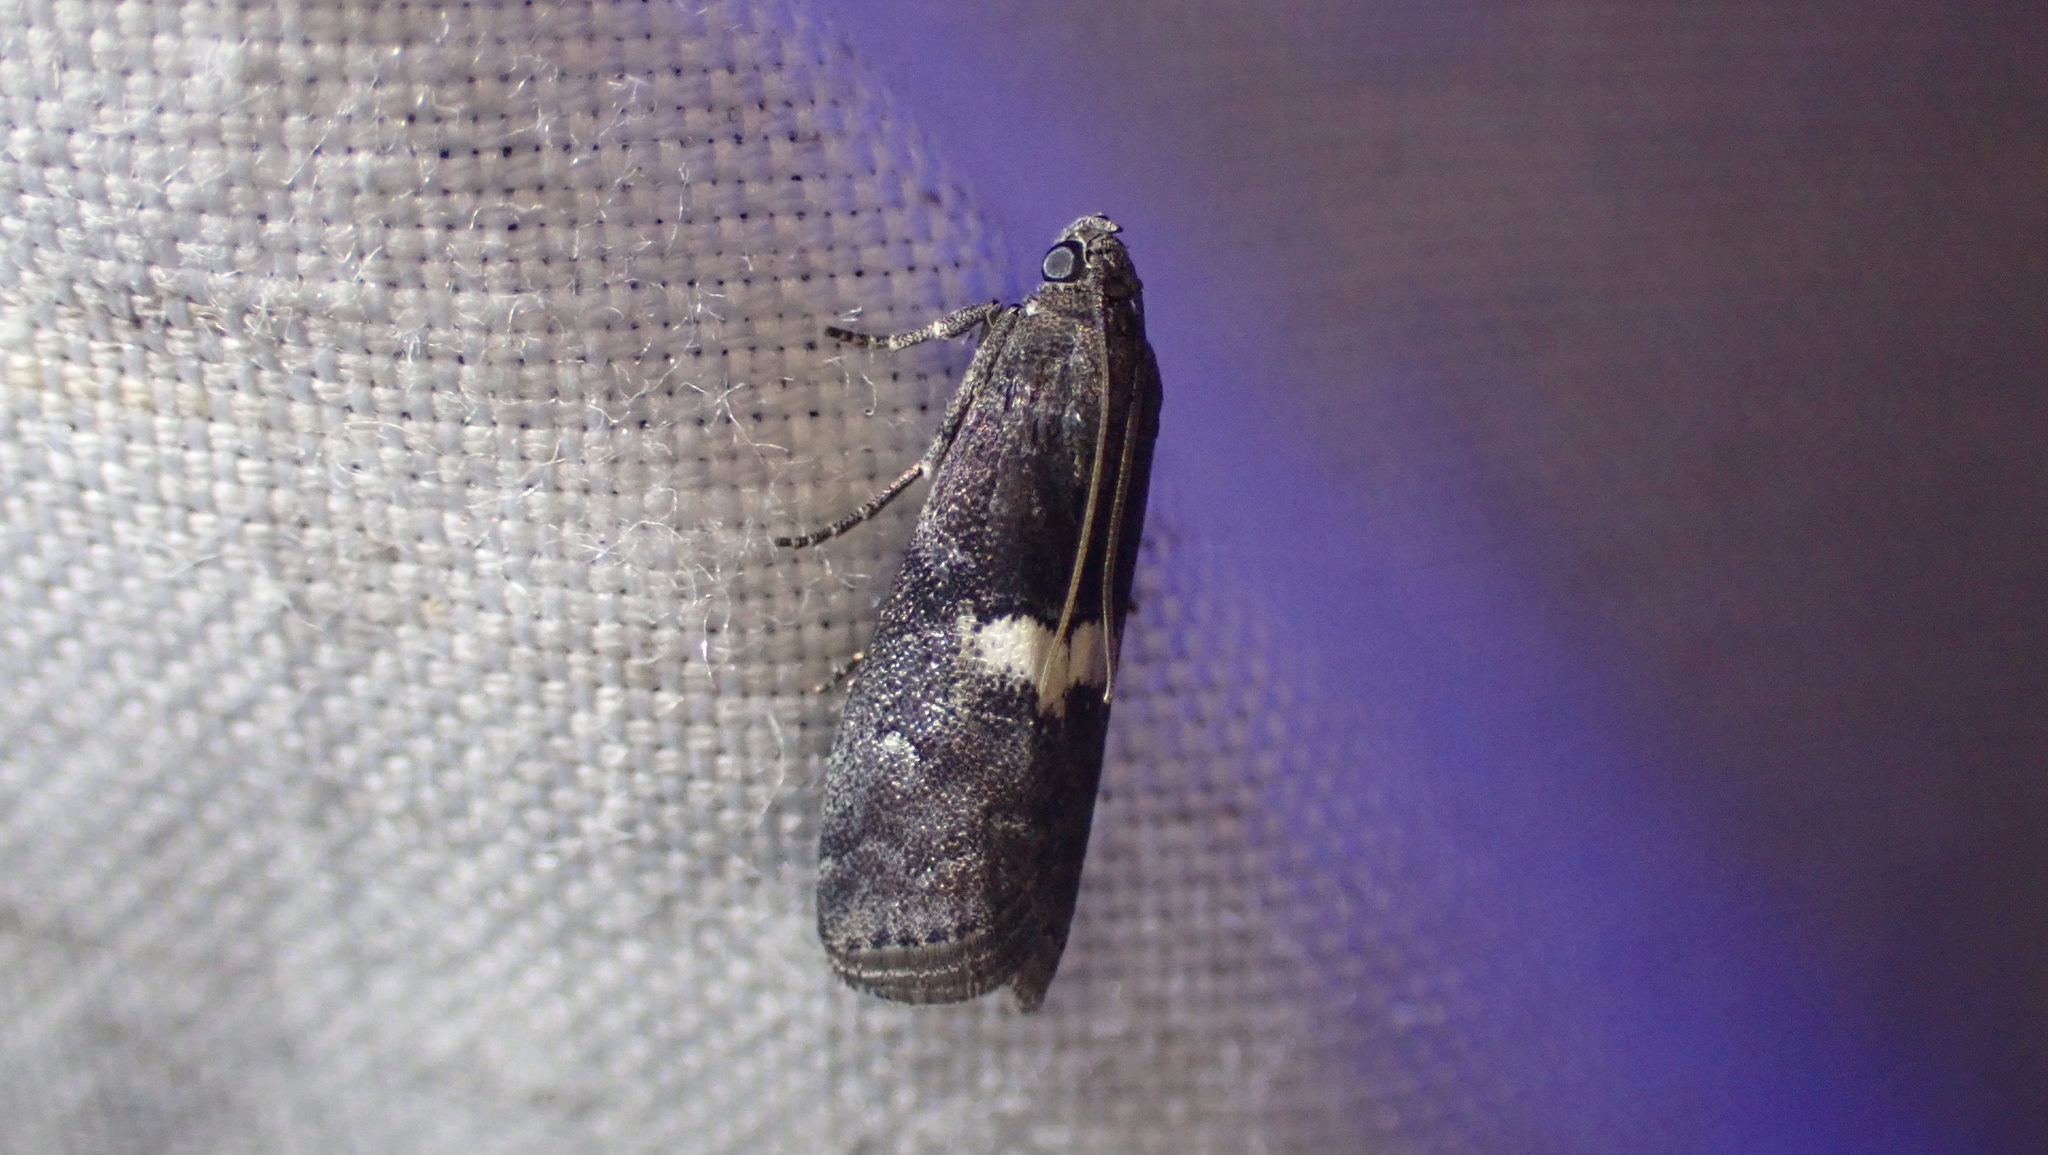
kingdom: Animalia
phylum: Arthropoda
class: Insecta
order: Lepidoptera
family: Pyralidae
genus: Salebriaria
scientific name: Salebriaria engeli
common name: Engel's salebriaria moth
